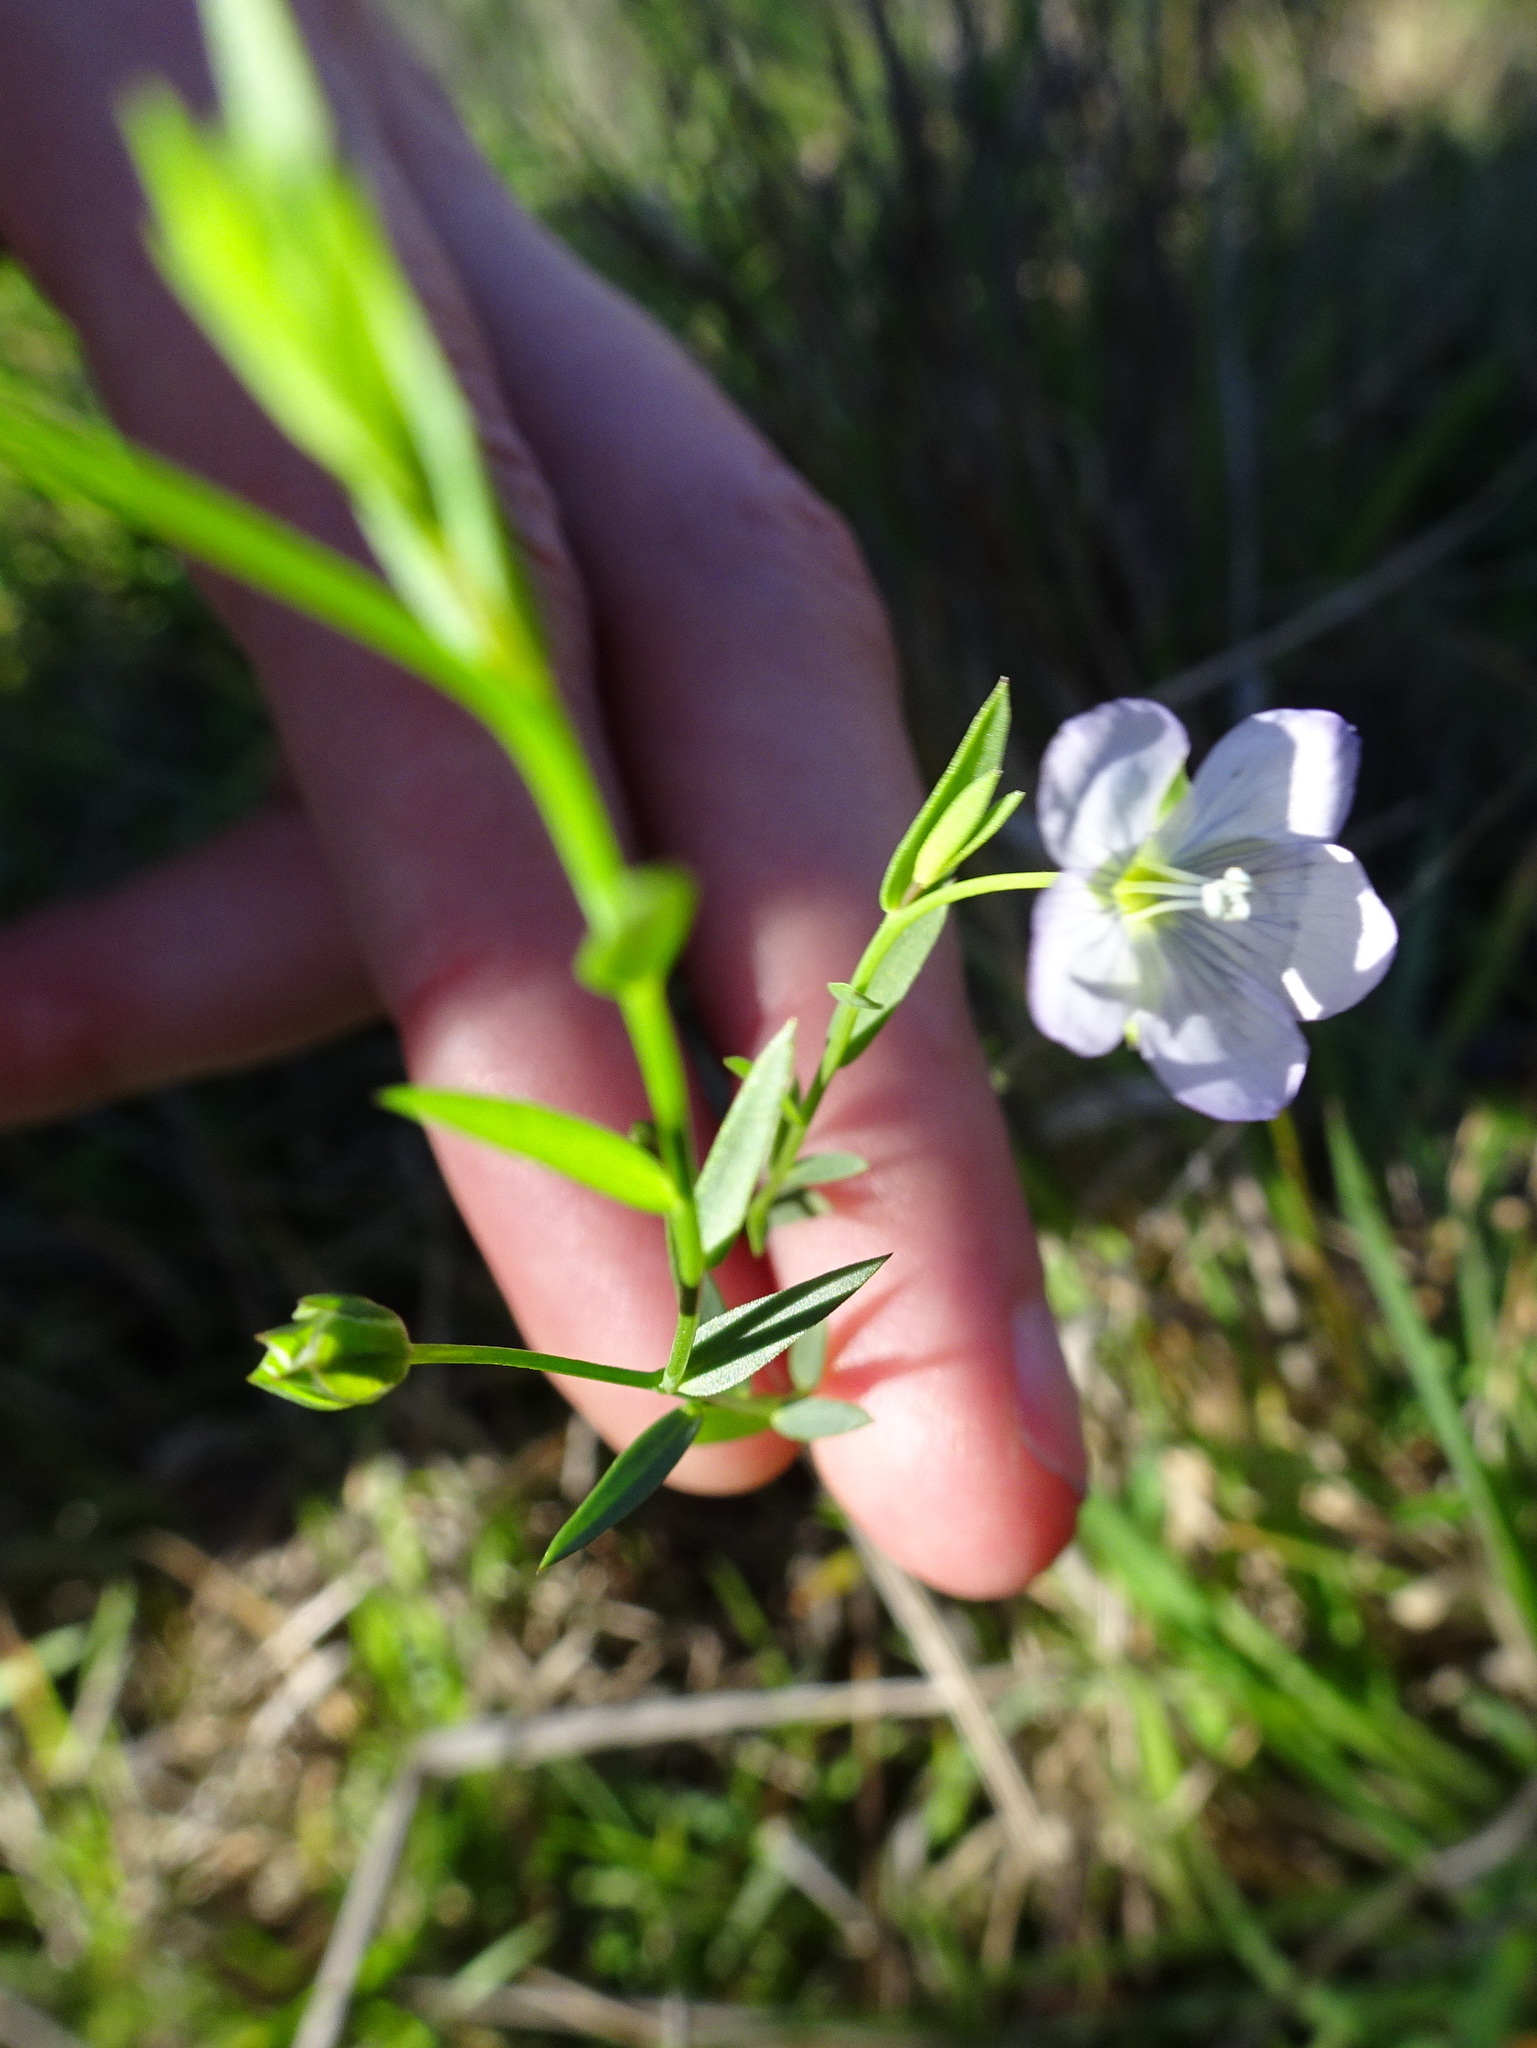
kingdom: Plantae
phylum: Tracheophyta
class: Magnoliopsida
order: Malpighiales
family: Linaceae
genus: Linum
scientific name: Linum bienne
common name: Pale flax
